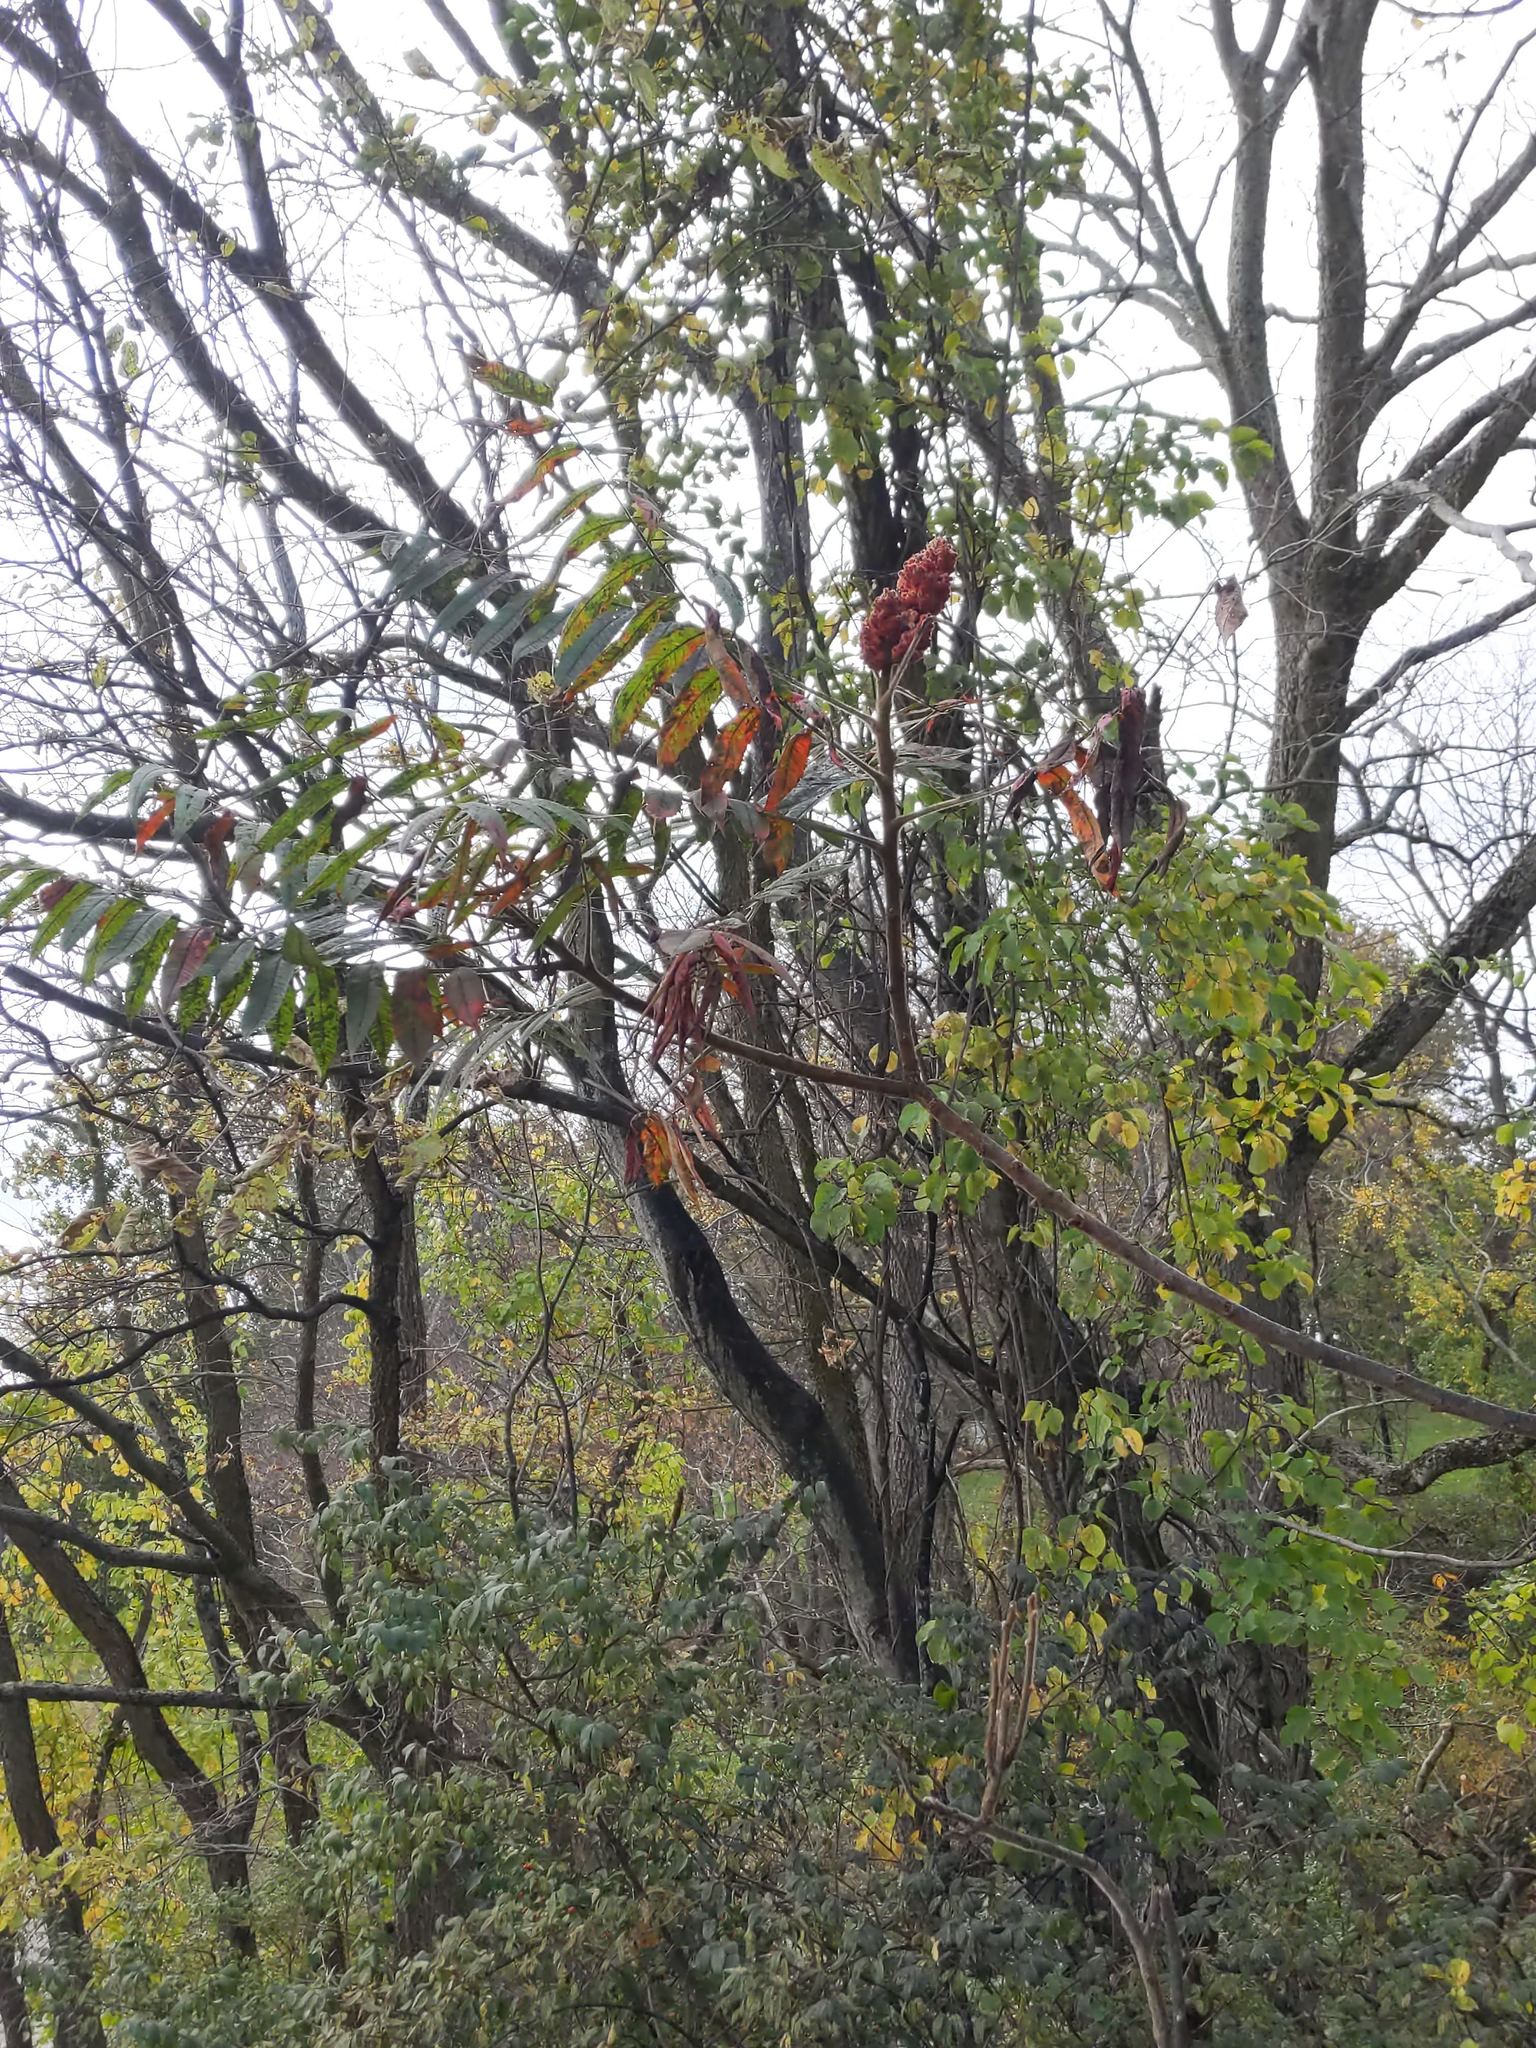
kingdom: Plantae
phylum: Tracheophyta
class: Magnoliopsida
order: Sapindales
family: Anacardiaceae
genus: Rhus
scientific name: Rhus typhina
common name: Staghorn sumac
